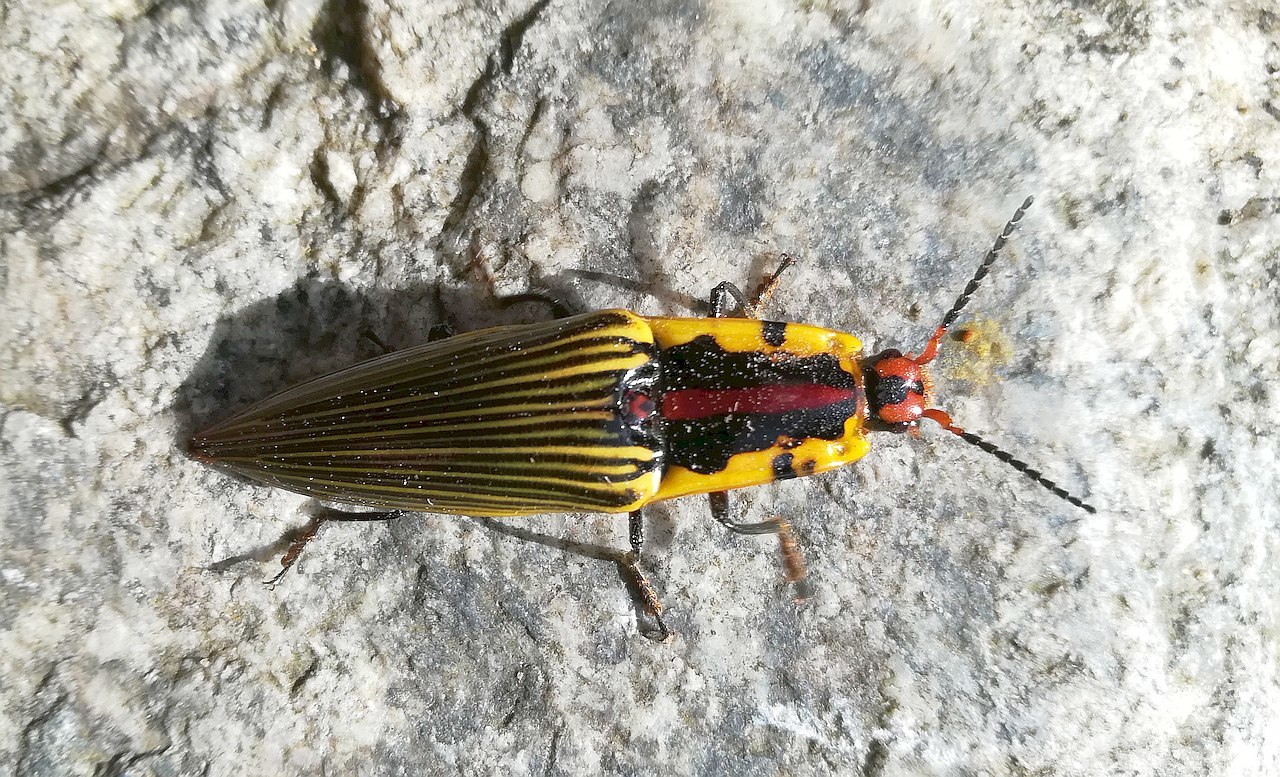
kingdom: Animalia
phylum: Arthropoda
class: Insecta
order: Coleoptera
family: Elateridae
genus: Semiotus
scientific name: Semiotus
